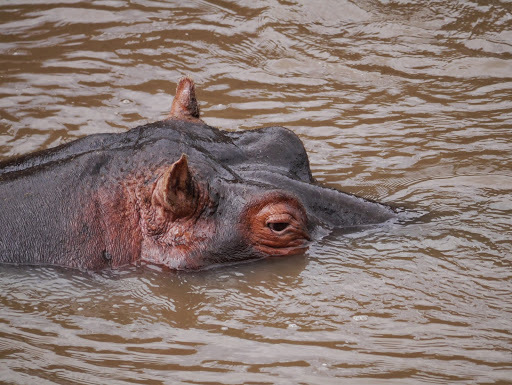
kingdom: Animalia
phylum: Chordata
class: Mammalia
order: Artiodactyla
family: Hippopotamidae
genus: Hippopotamus
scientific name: Hippopotamus amphibius
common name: Common hippopotamus
